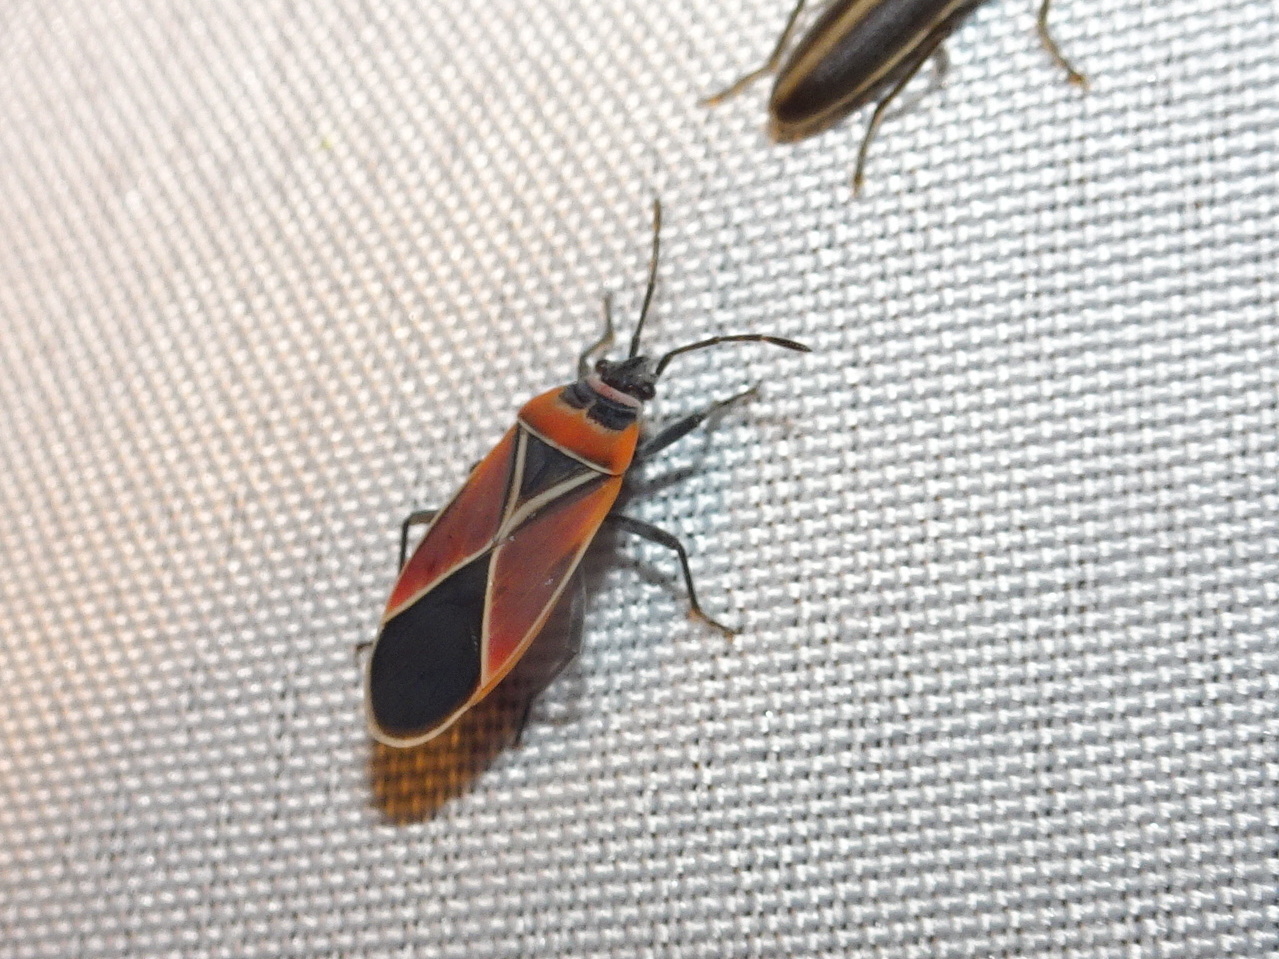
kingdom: Animalia
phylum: Arthropoda
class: Insecta
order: Hemiptera
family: Lygaeidae
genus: Neacoryphus
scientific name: Neacoryphus bicrucis
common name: Lygaeid bug
